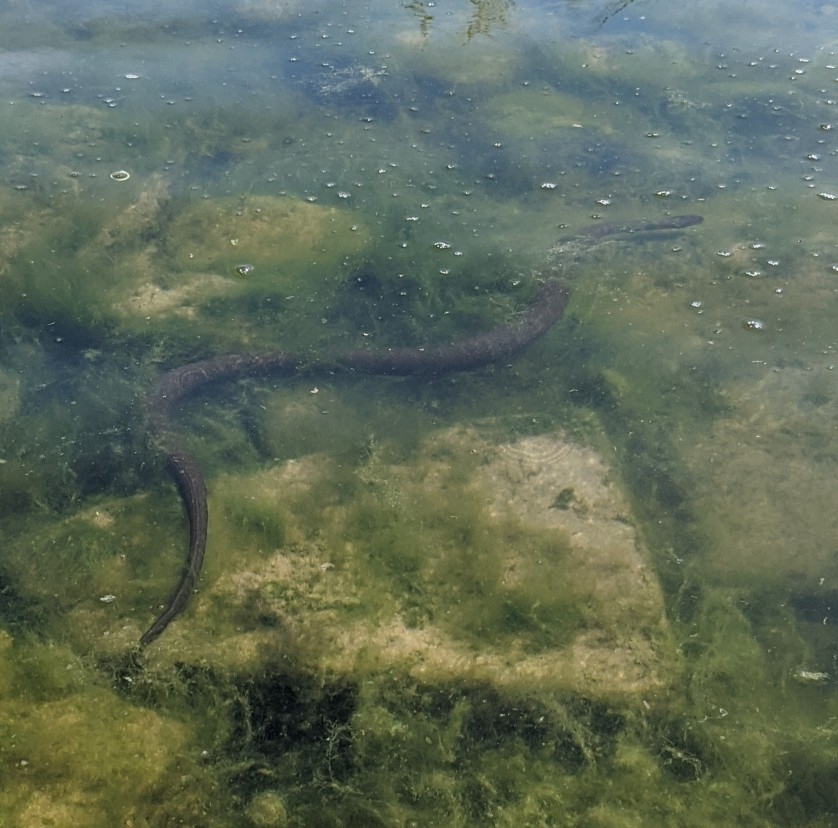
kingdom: Animalia
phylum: Chordata
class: Squamata
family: Colubridae
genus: Nerodia
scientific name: Nerodia sipedon
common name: Northern water snake
